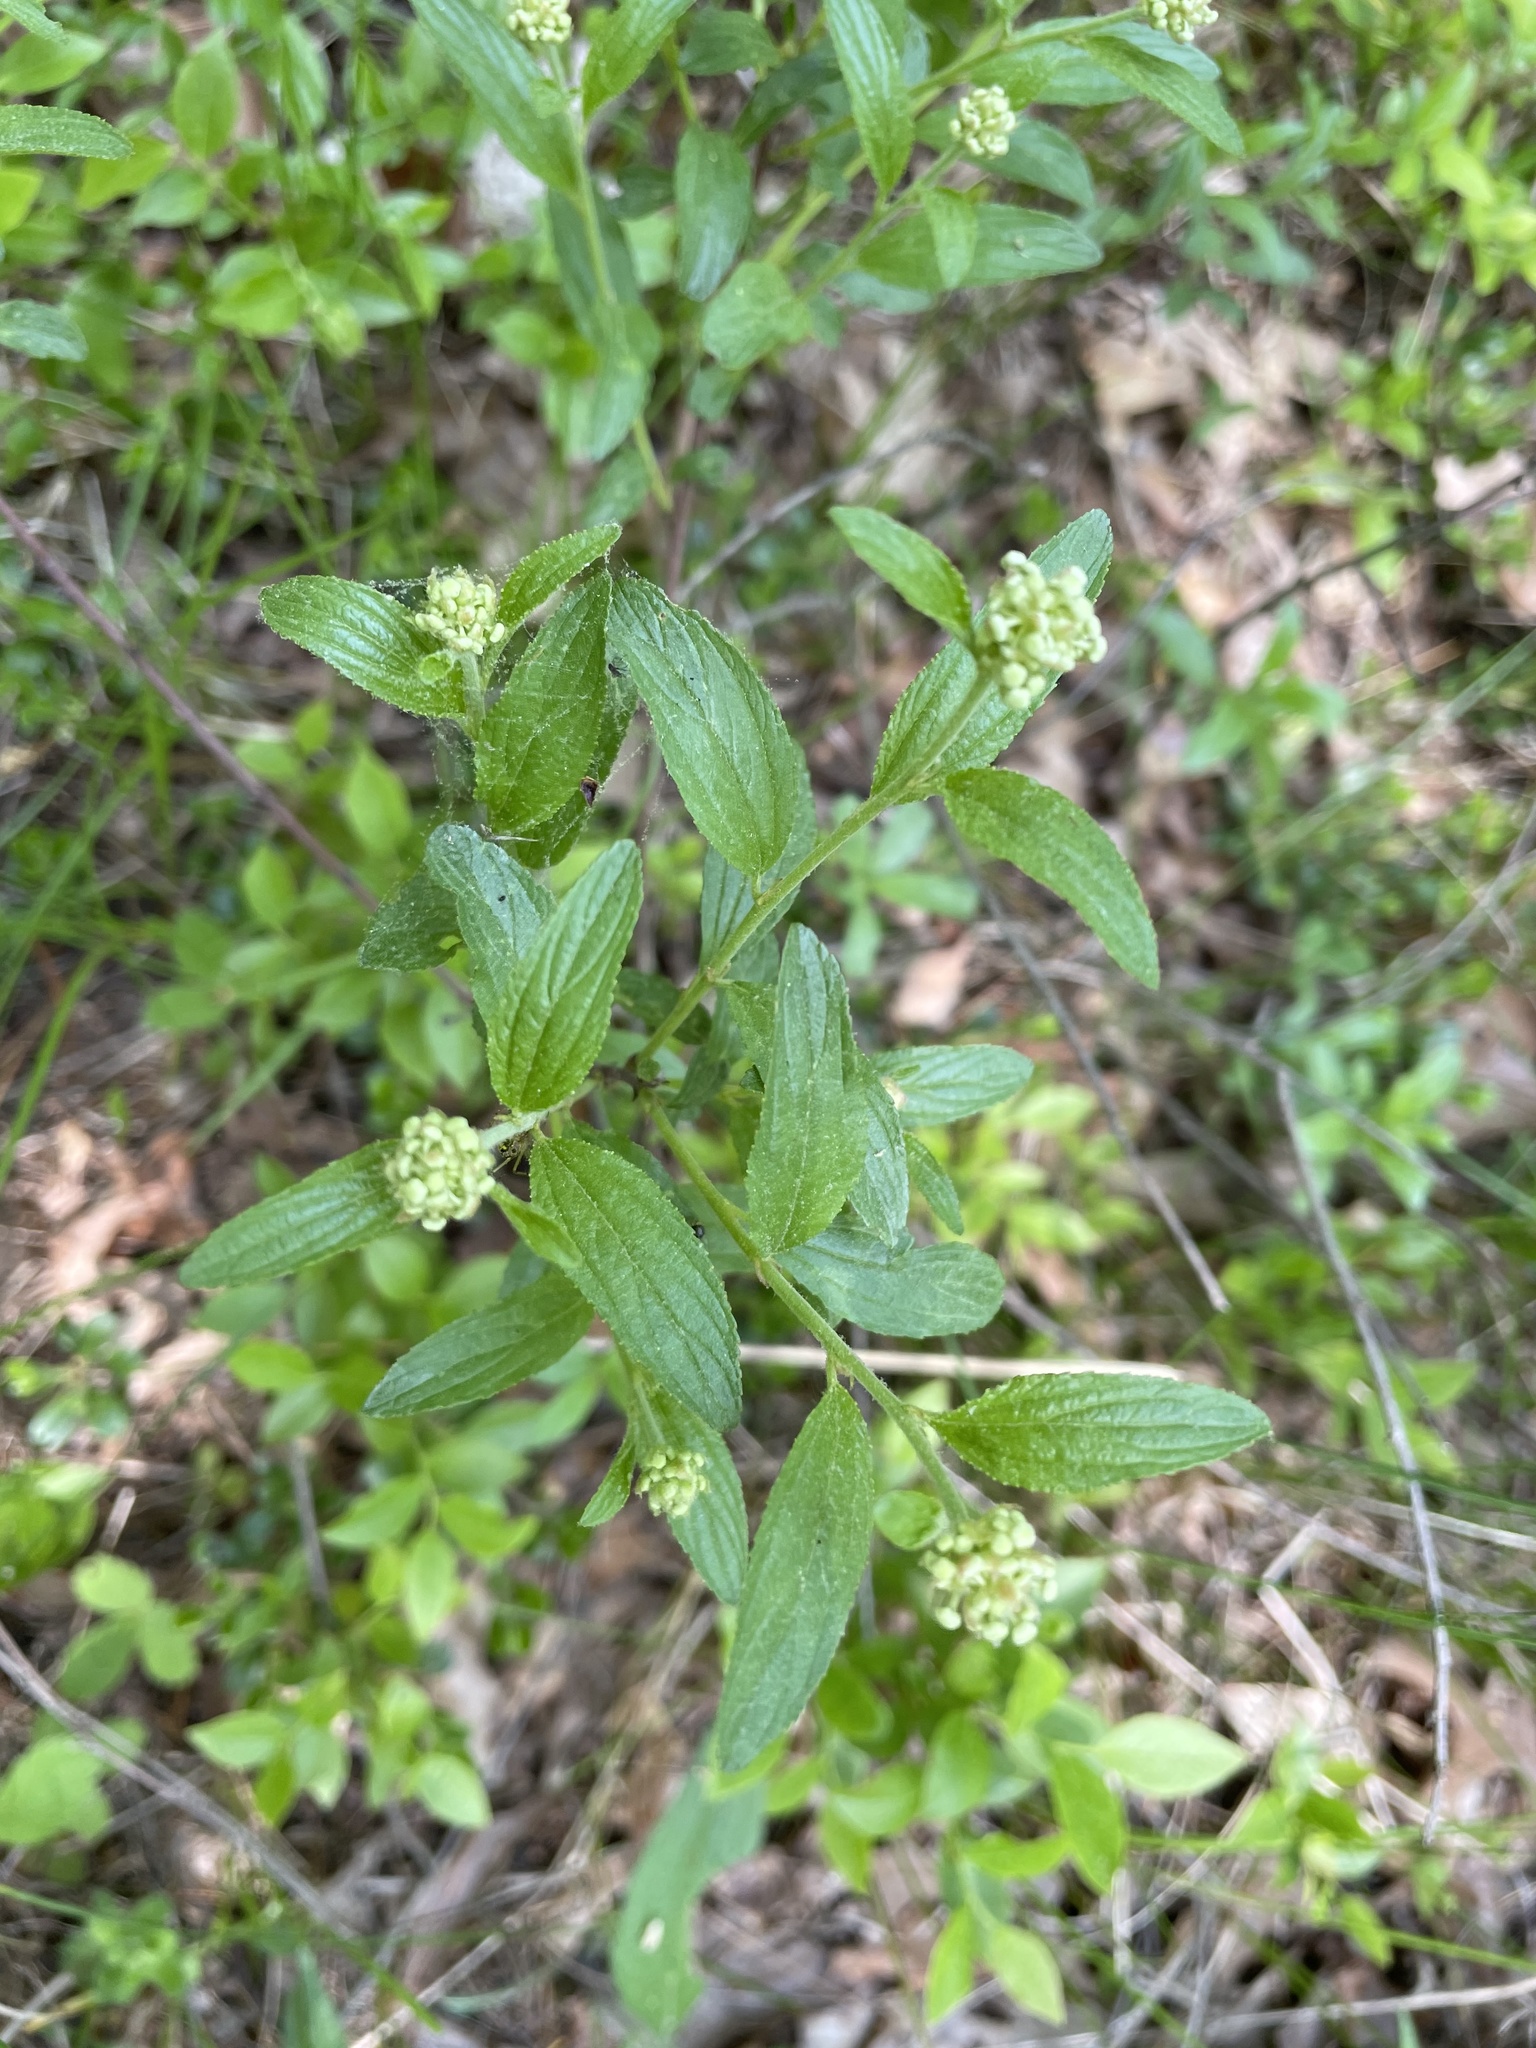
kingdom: Plantae
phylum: Tracheophyta
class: Magnoliopsida
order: Rosales
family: Rhamnaceae
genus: Ceanothus
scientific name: Ceanothus herbaceus
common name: Inland ceanothus
